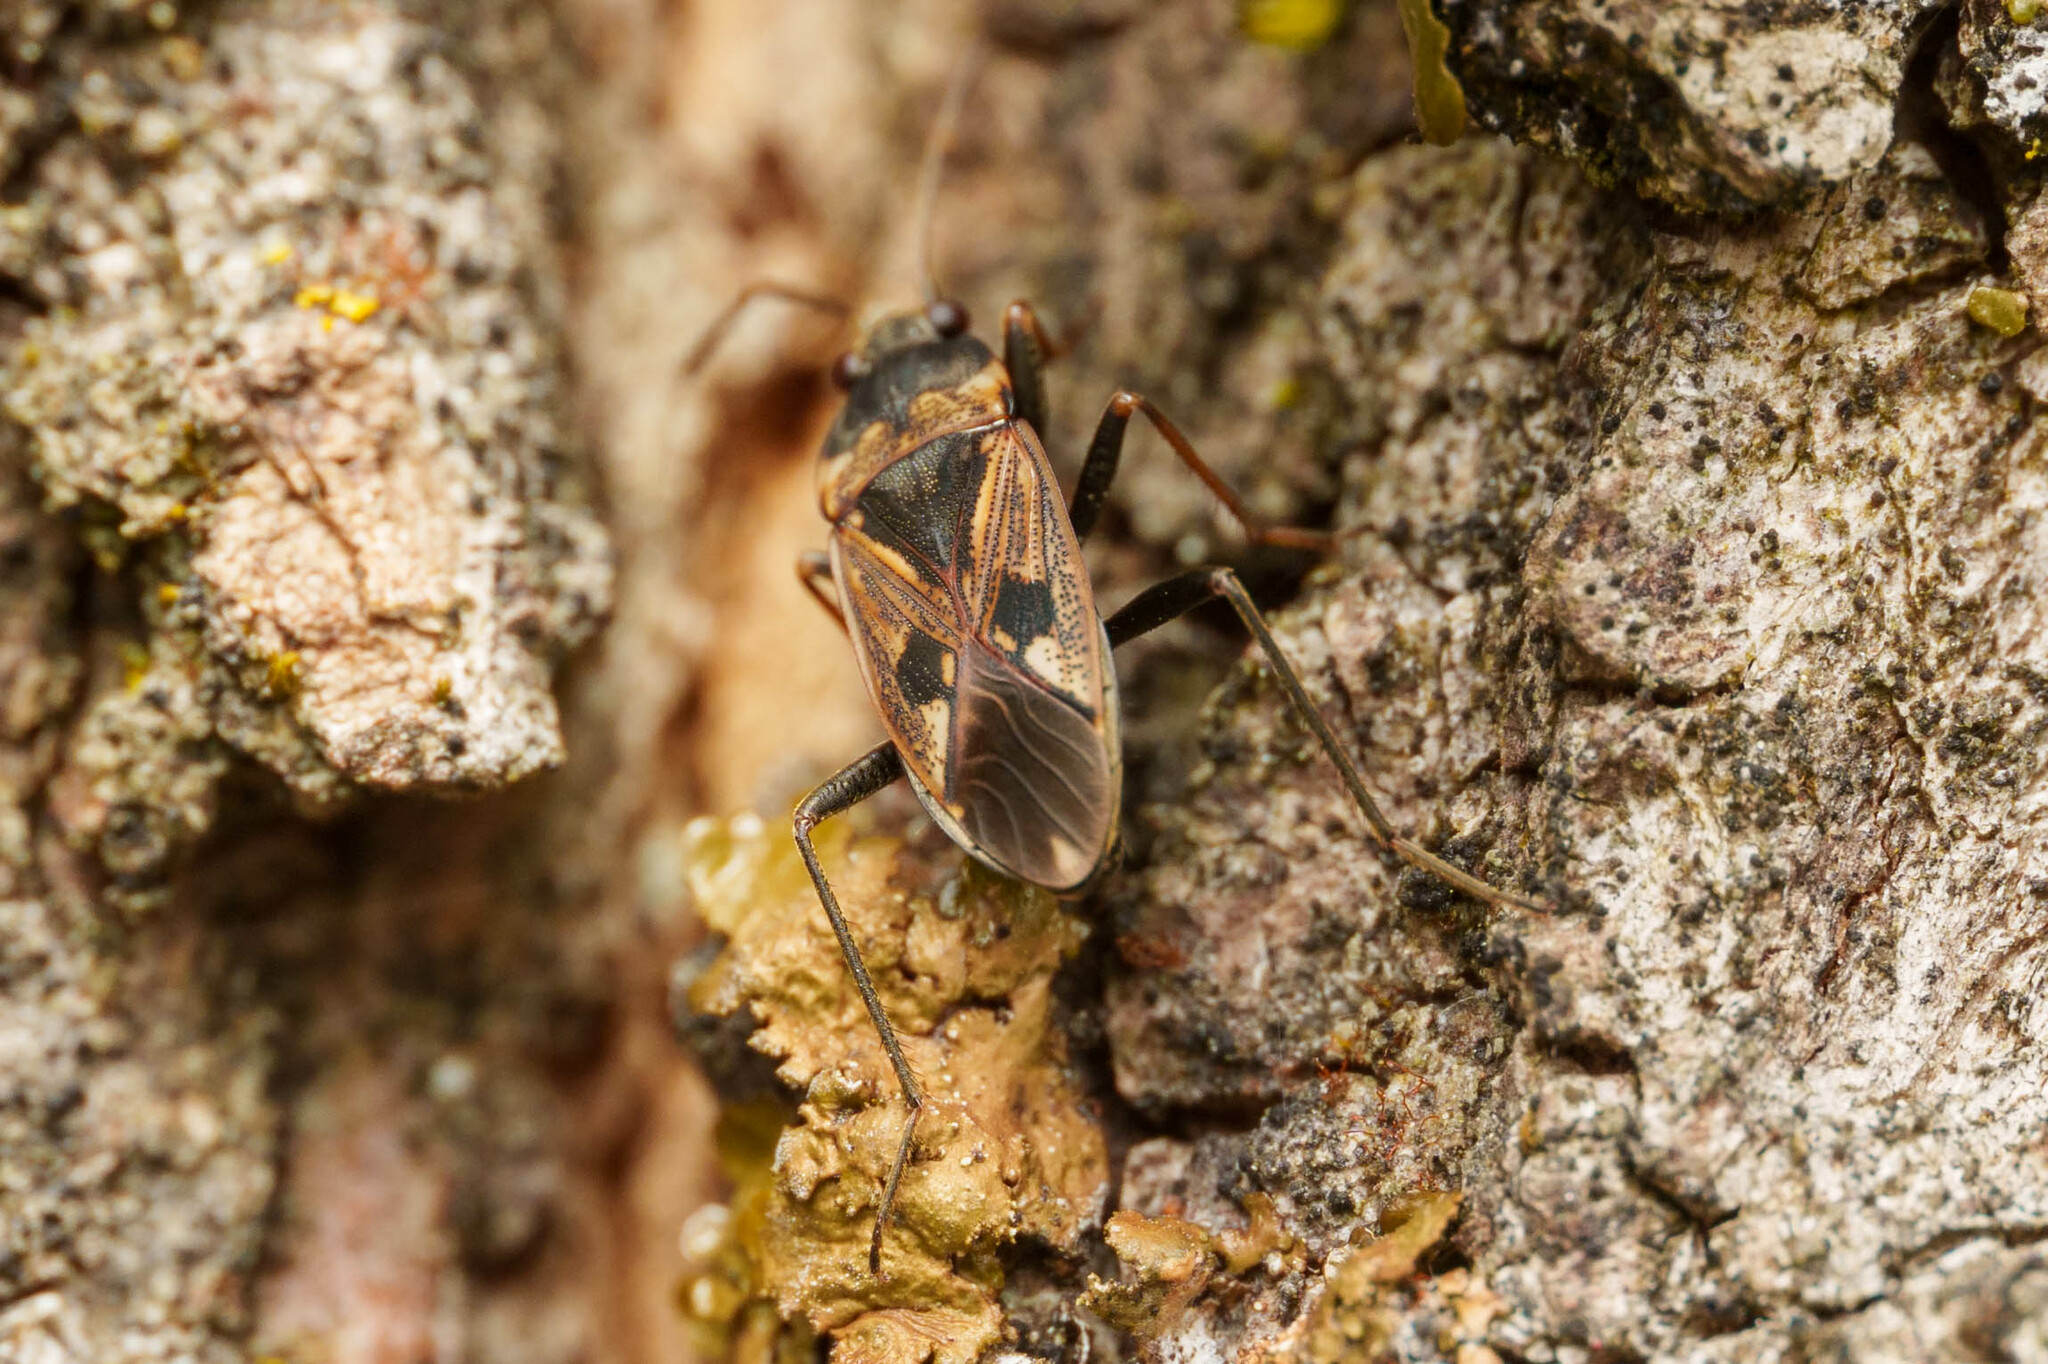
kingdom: Animalia
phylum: Arthropoda
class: Insecta
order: Hemiptera
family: Rhyparochromidae
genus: Rhyparochromus
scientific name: Rhyparochromus vulgaris
